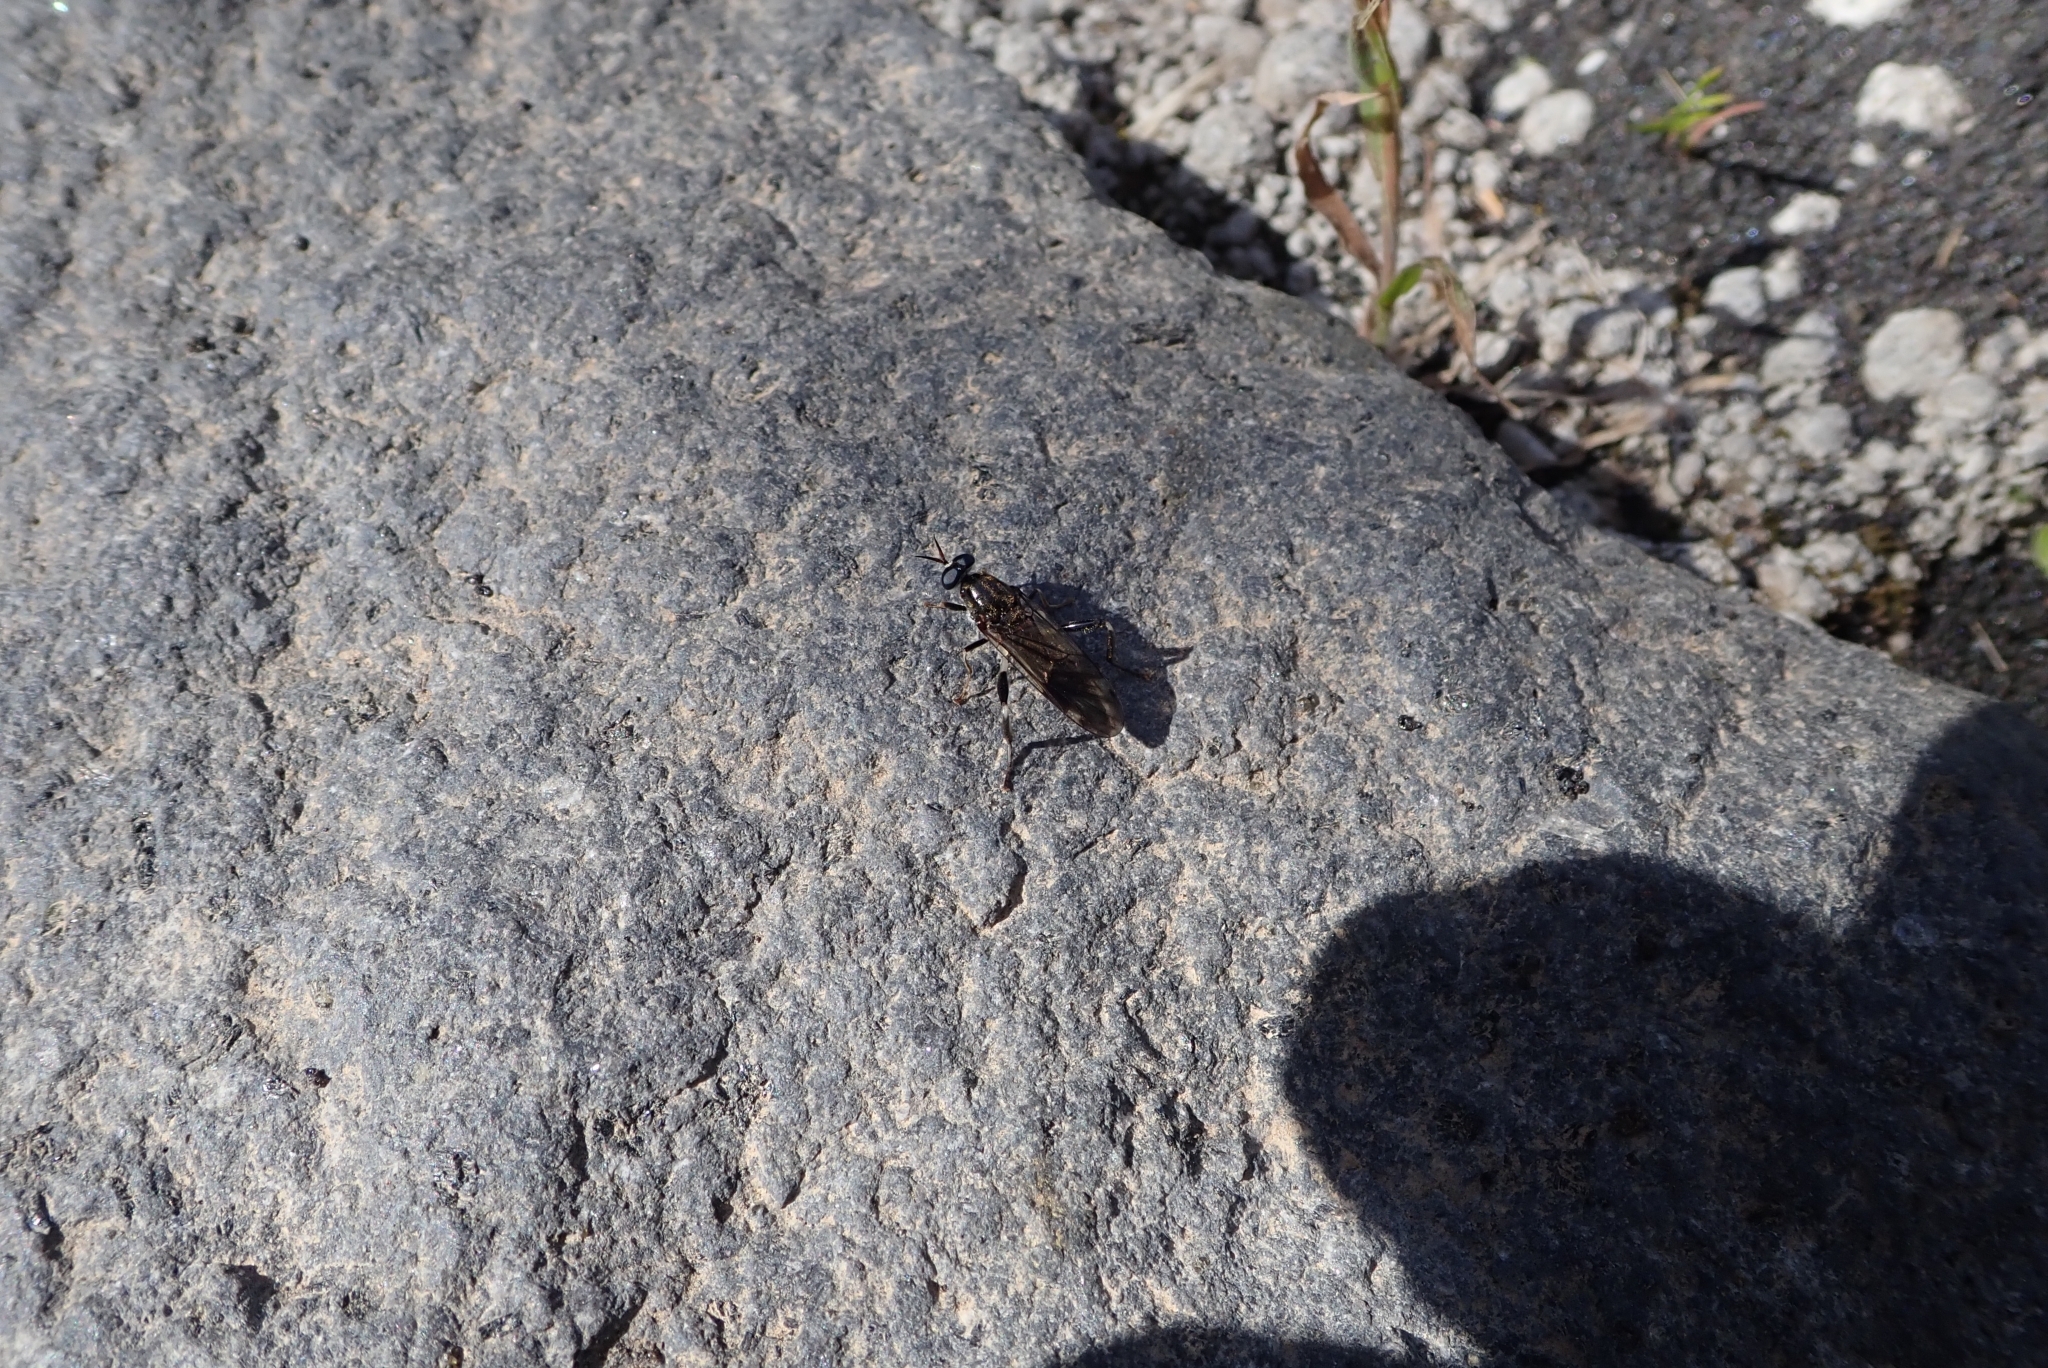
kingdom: Animalia
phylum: Arthropoda
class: Insecta
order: Diptera
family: Stratiomyidae
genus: Exaireta
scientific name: Exaireta spinigera
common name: Blue soldier fly
